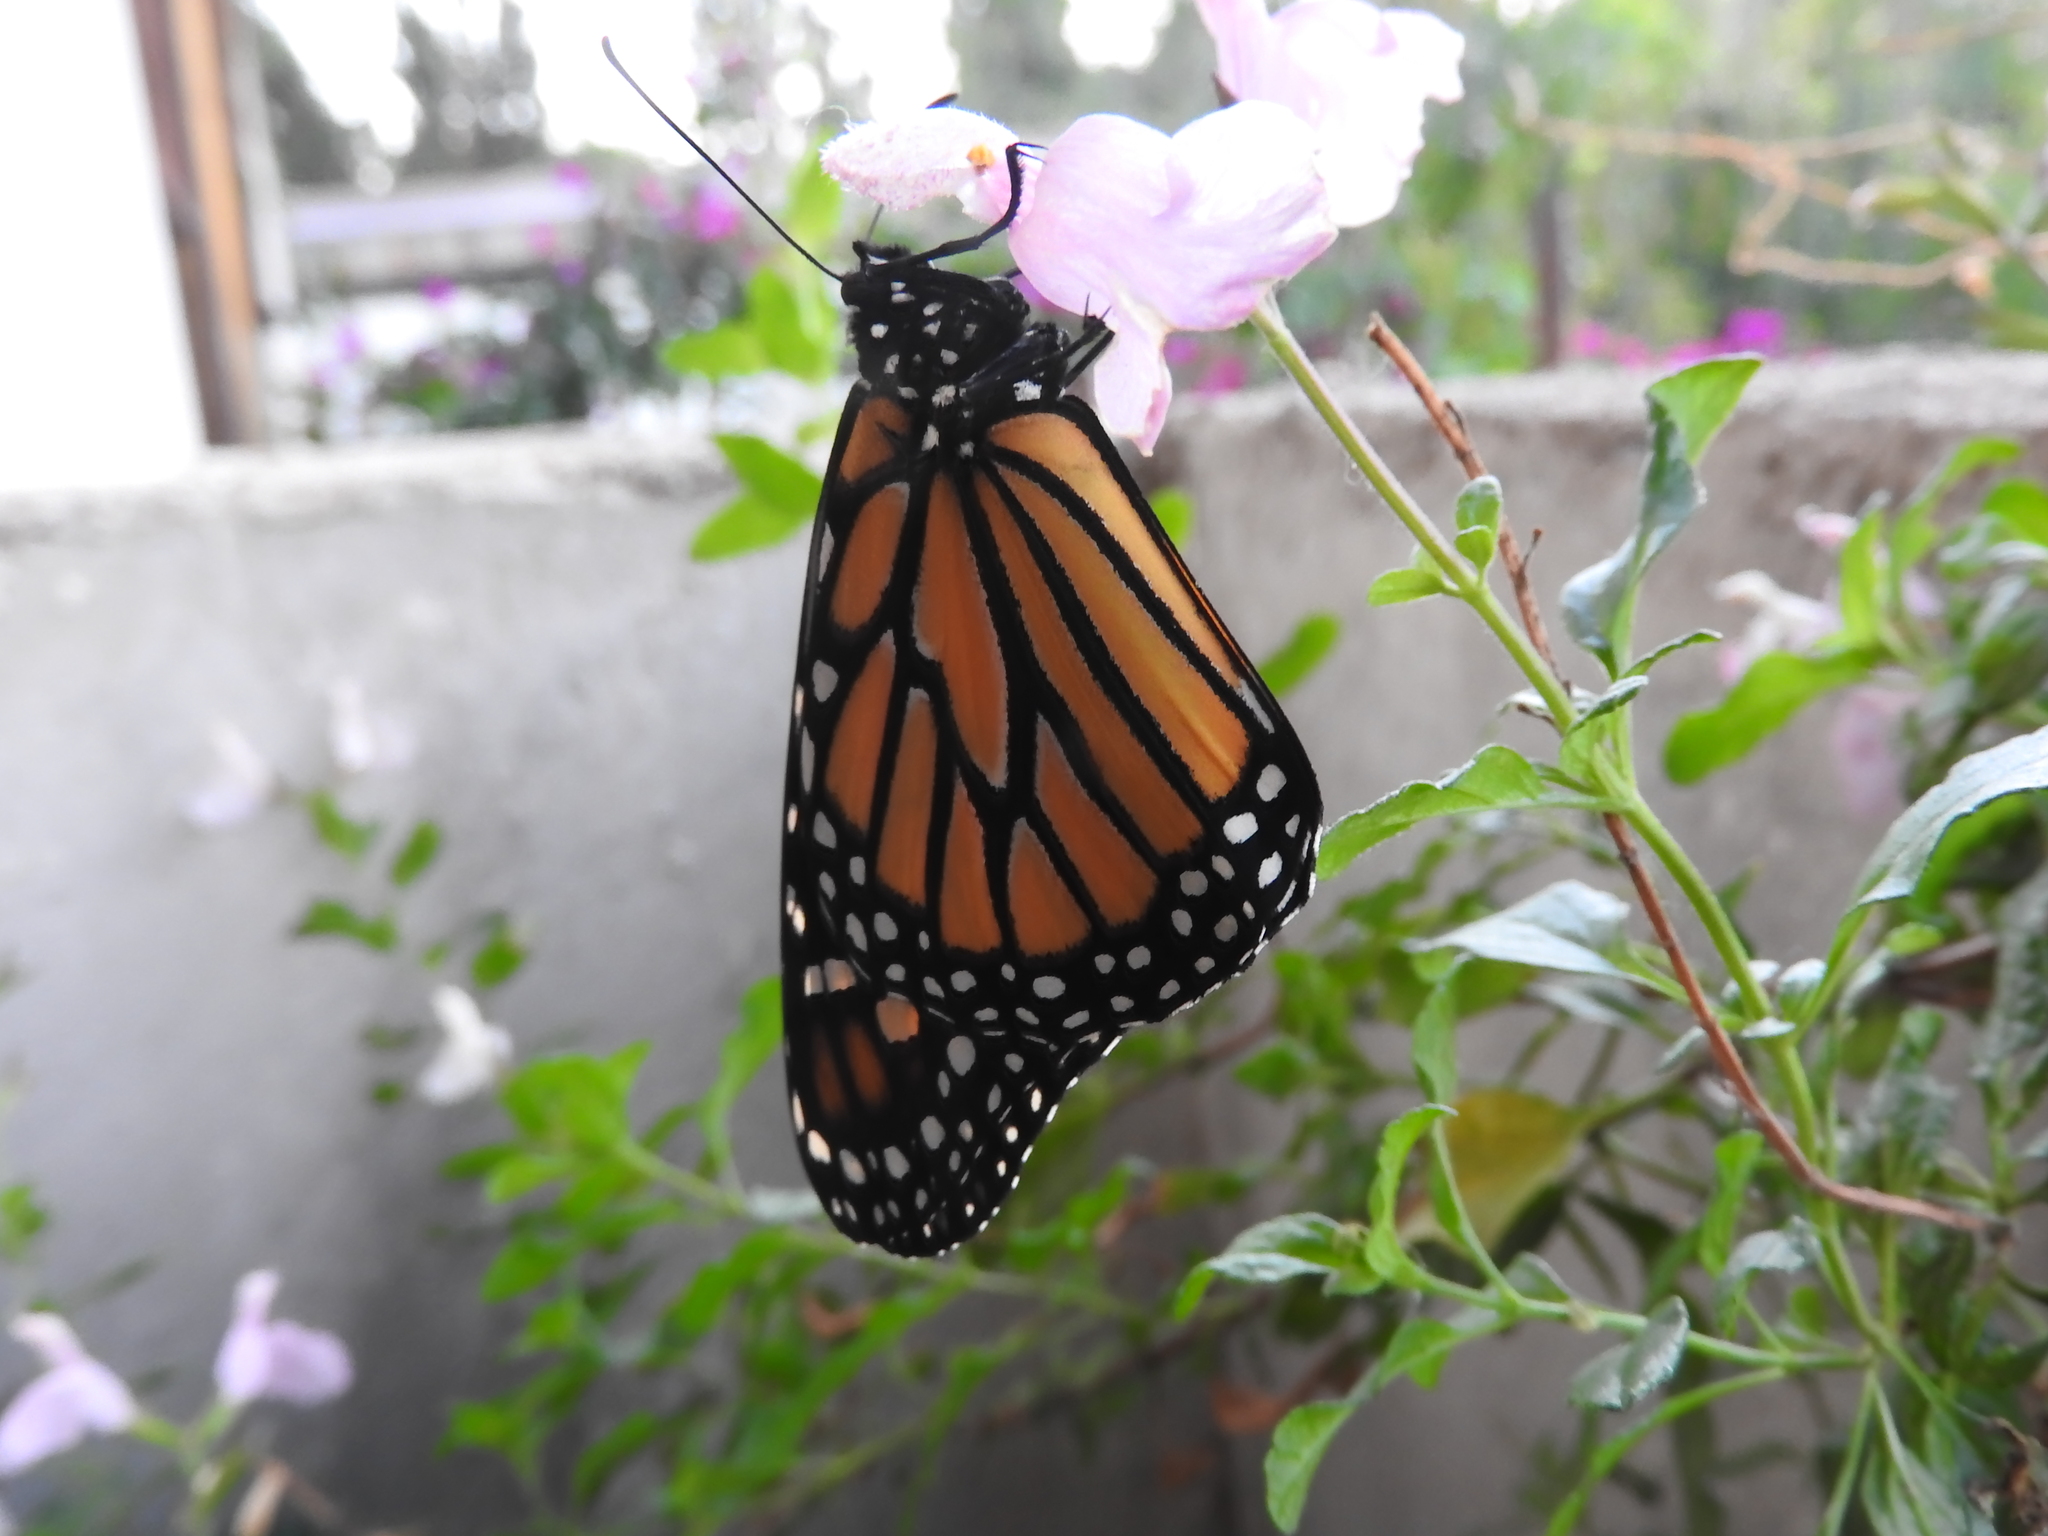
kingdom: Animalia
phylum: Arthropoda
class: Insecta
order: Lepidoptera
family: Nymphalidae
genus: Danaus
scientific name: Danaus plexippus
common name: Monarch
